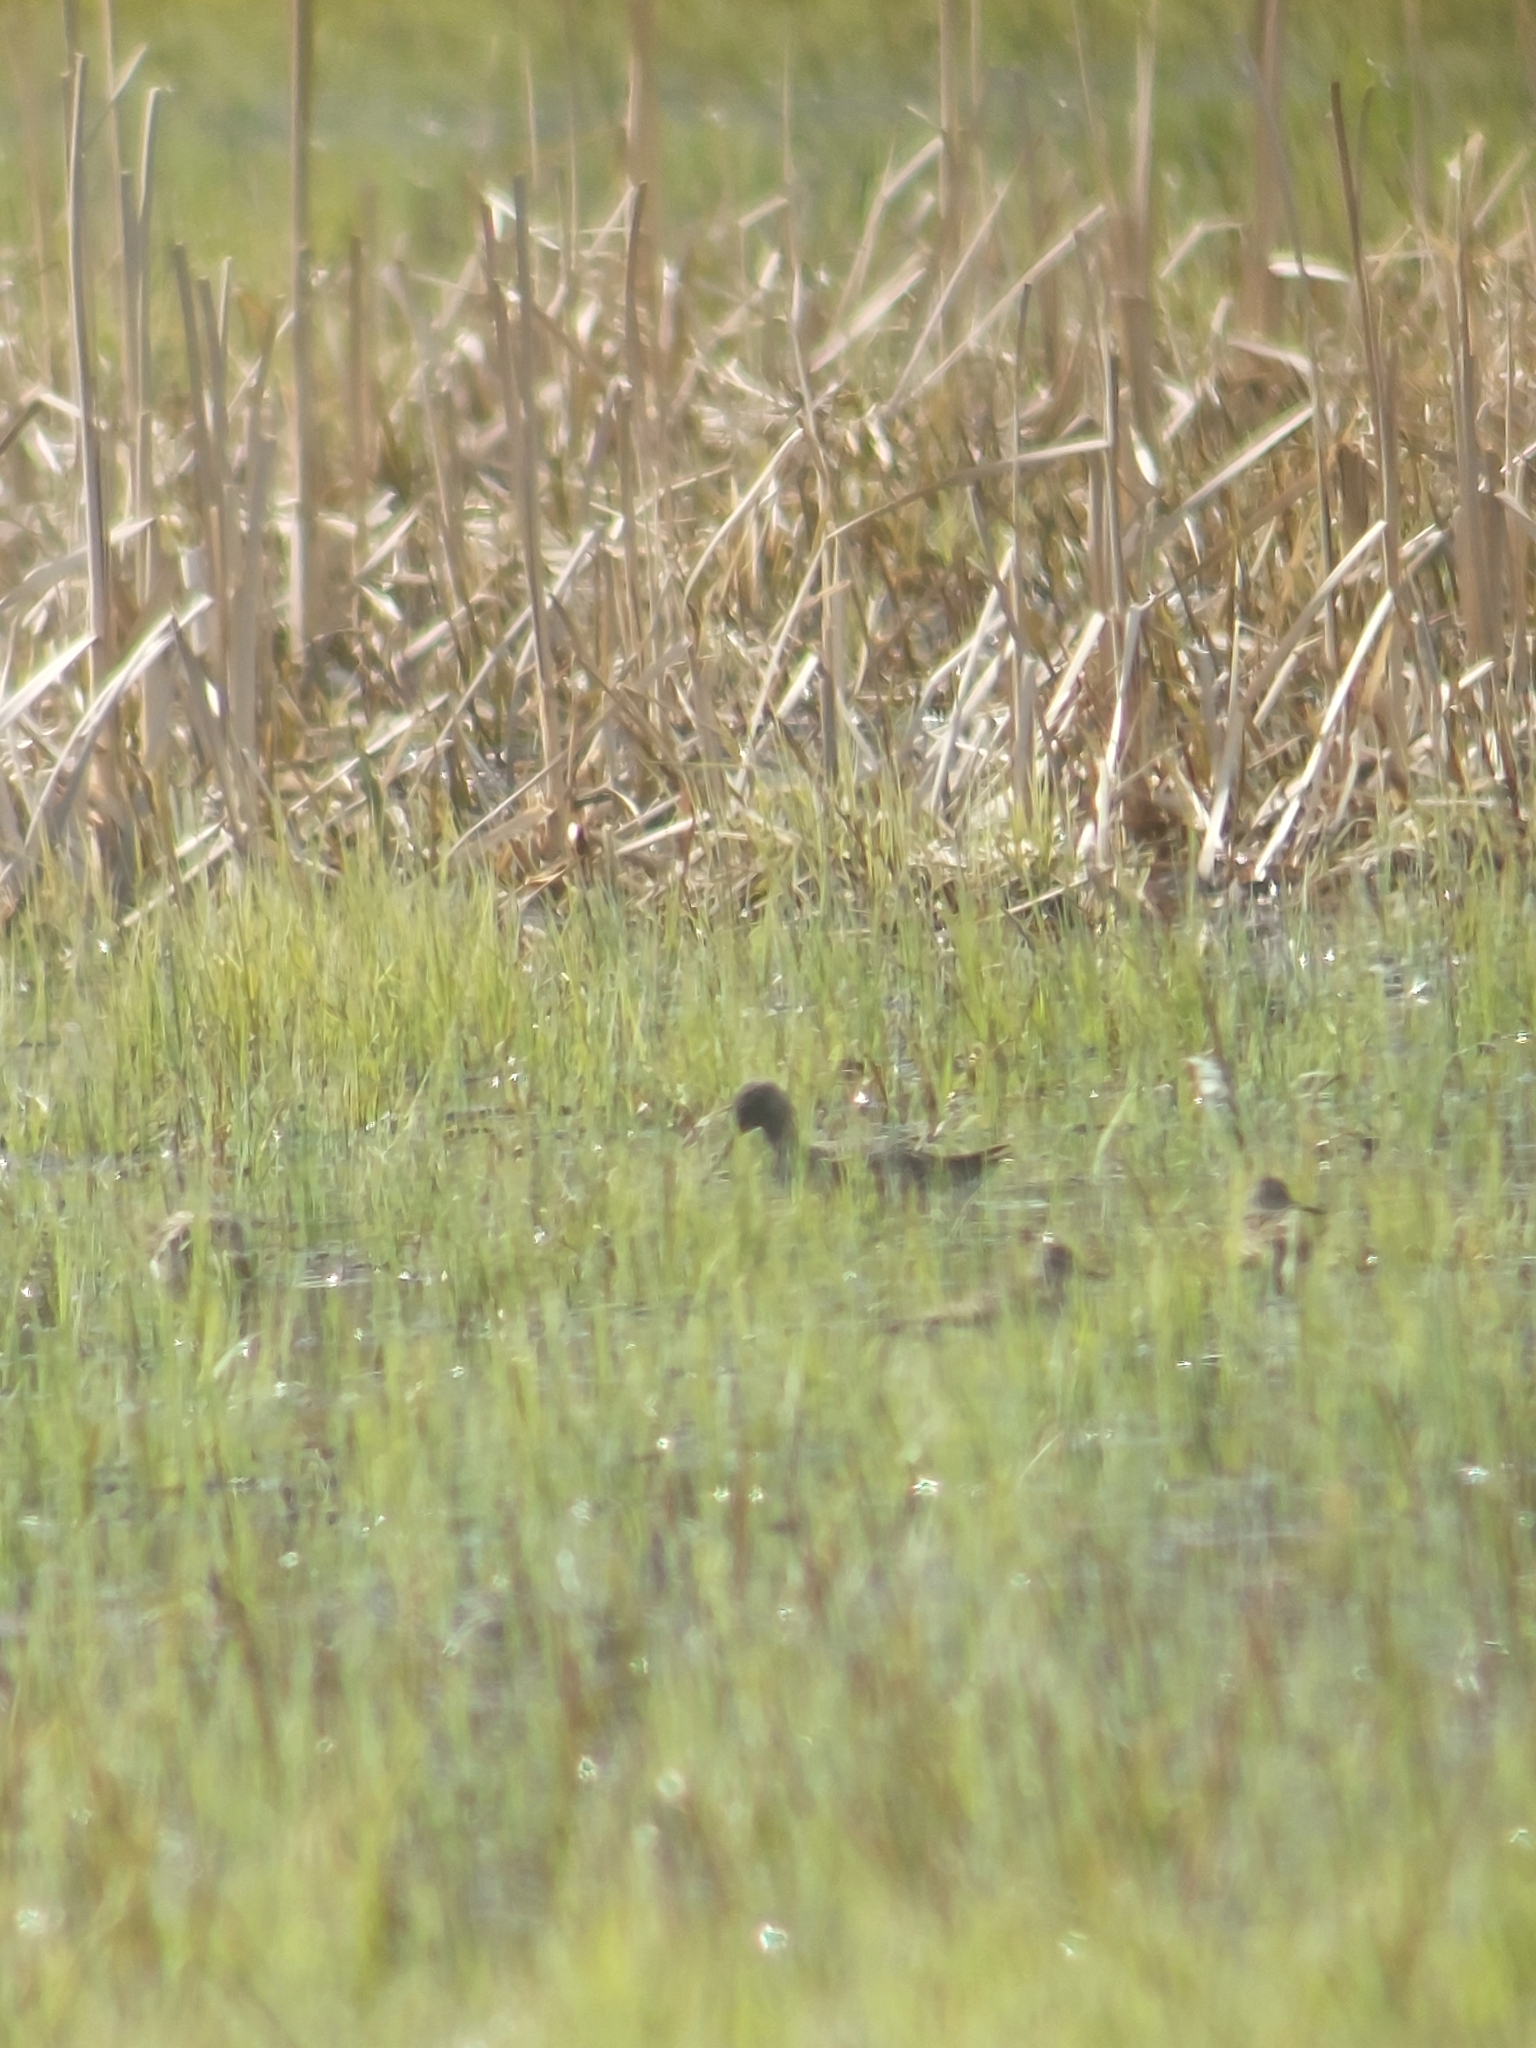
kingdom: Animalia
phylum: Chordata
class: Aves
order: Charadriiformes
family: Scolopacidae
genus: Tringa
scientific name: Tringa erythropus
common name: Spotted redshank
